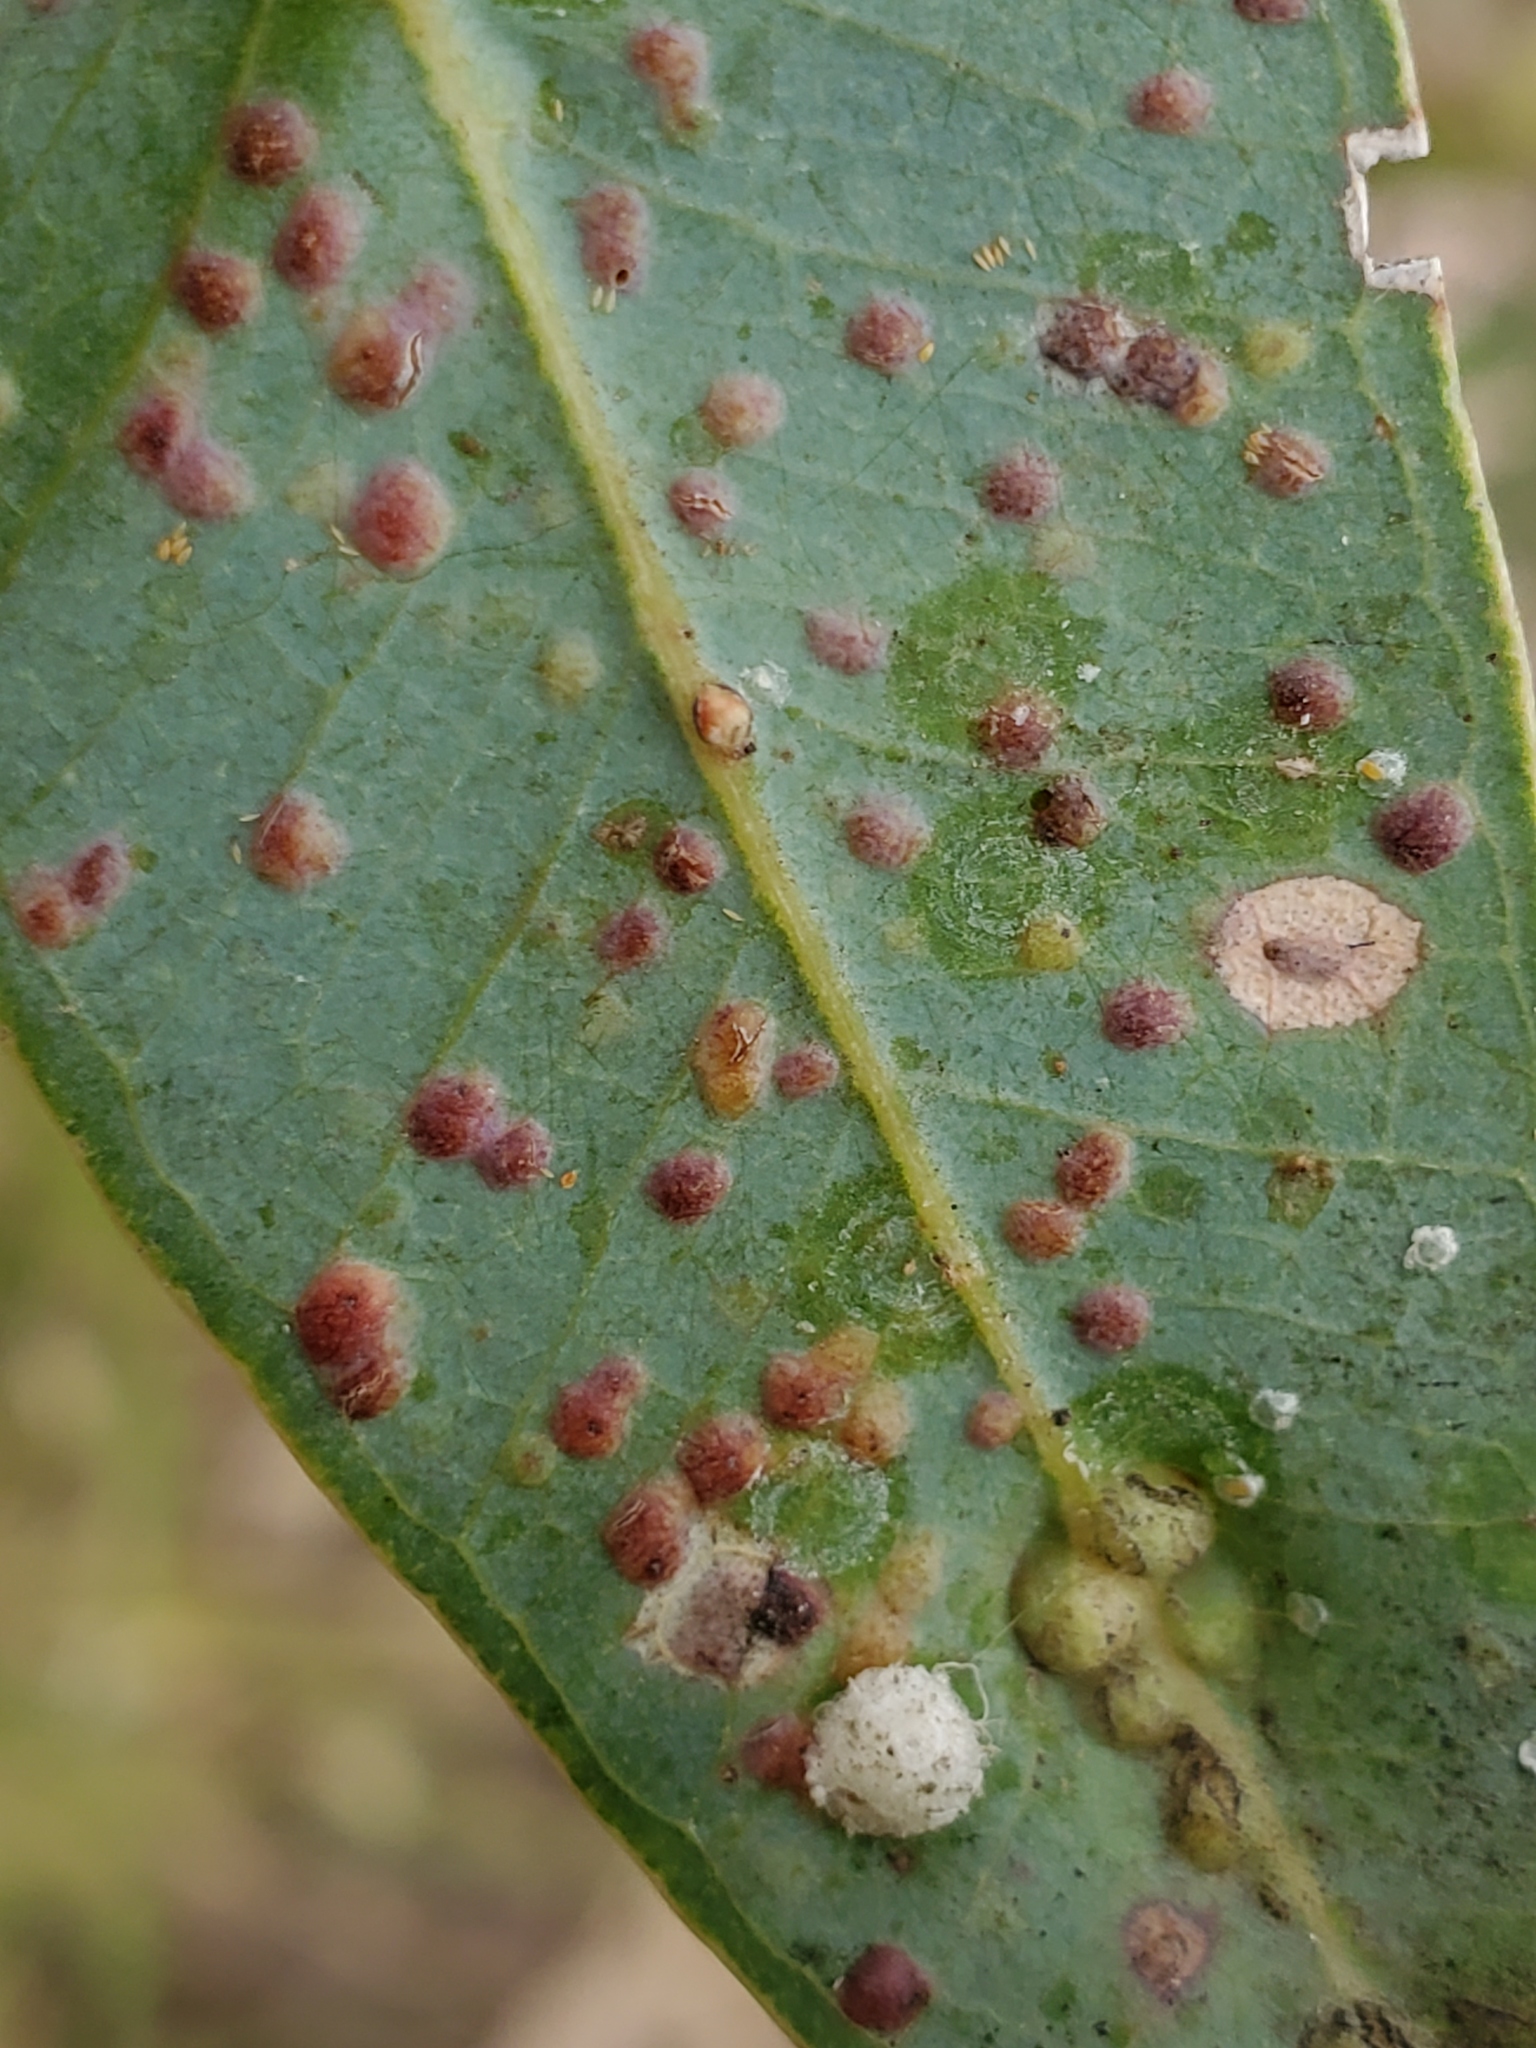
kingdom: Animalia
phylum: Arthropoda
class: Insecta
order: Hymenoptera
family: Eulophidae
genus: Ophelimus
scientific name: Ophelimus maskelli
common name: Gall wasp
